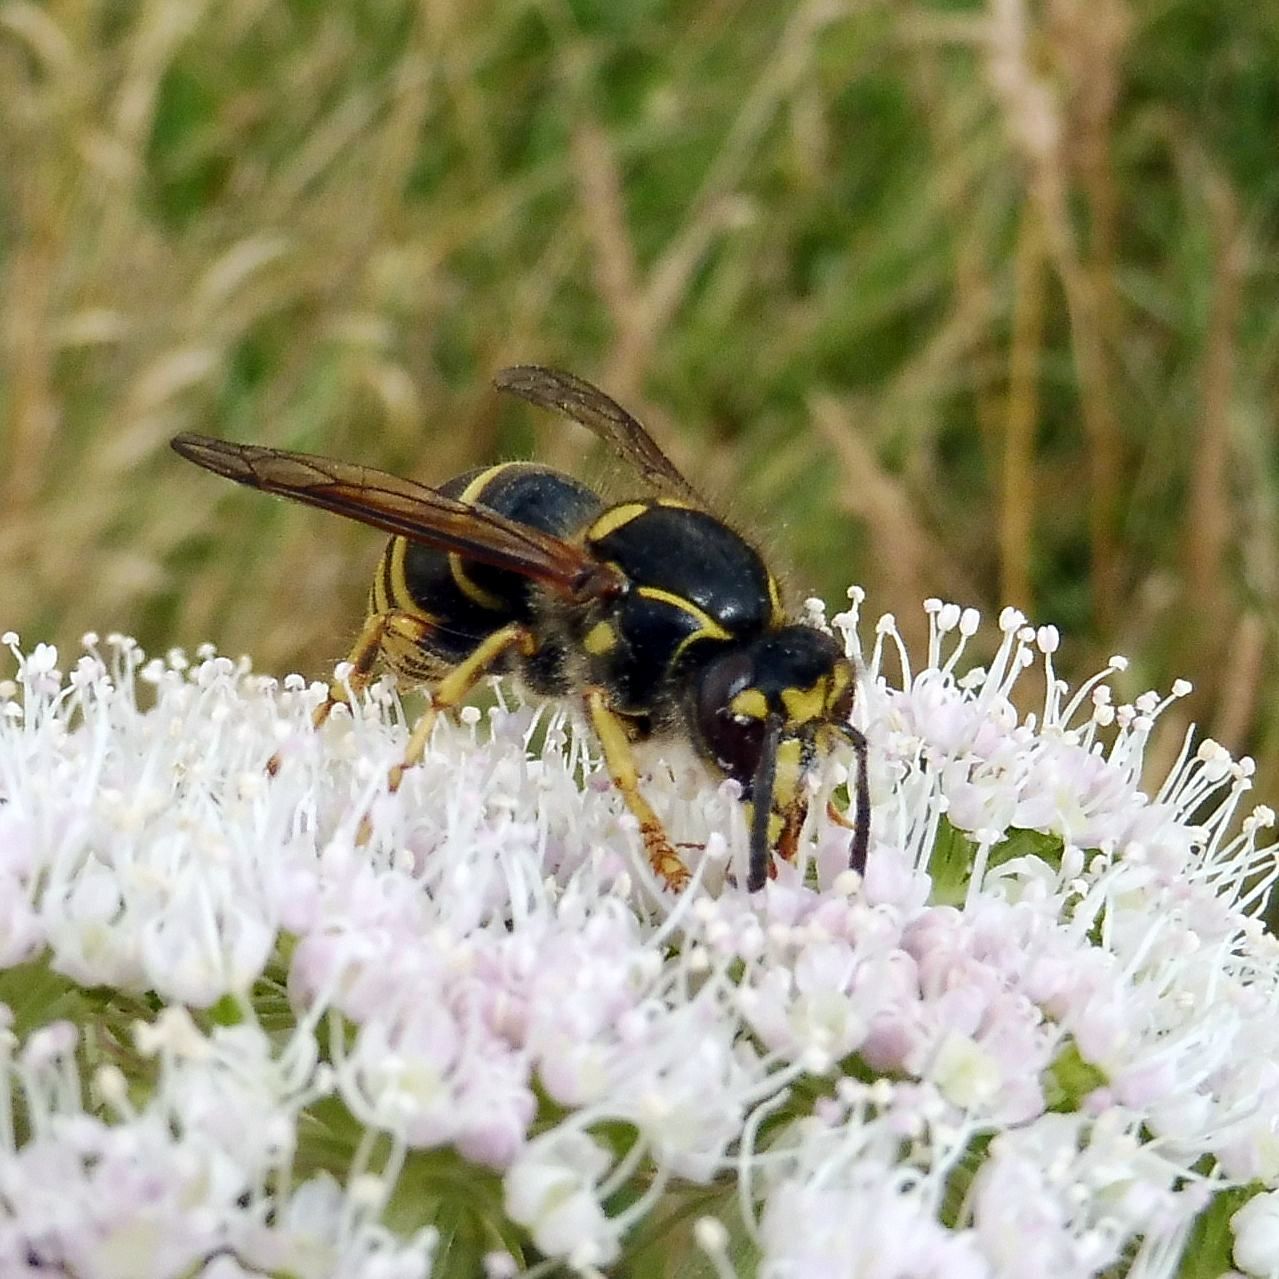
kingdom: Animalia
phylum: Arthropoda
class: Insecta
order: Hymenoptera
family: Vespidae
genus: Dolichovespula
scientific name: Dolichovespula media
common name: Median wasp
